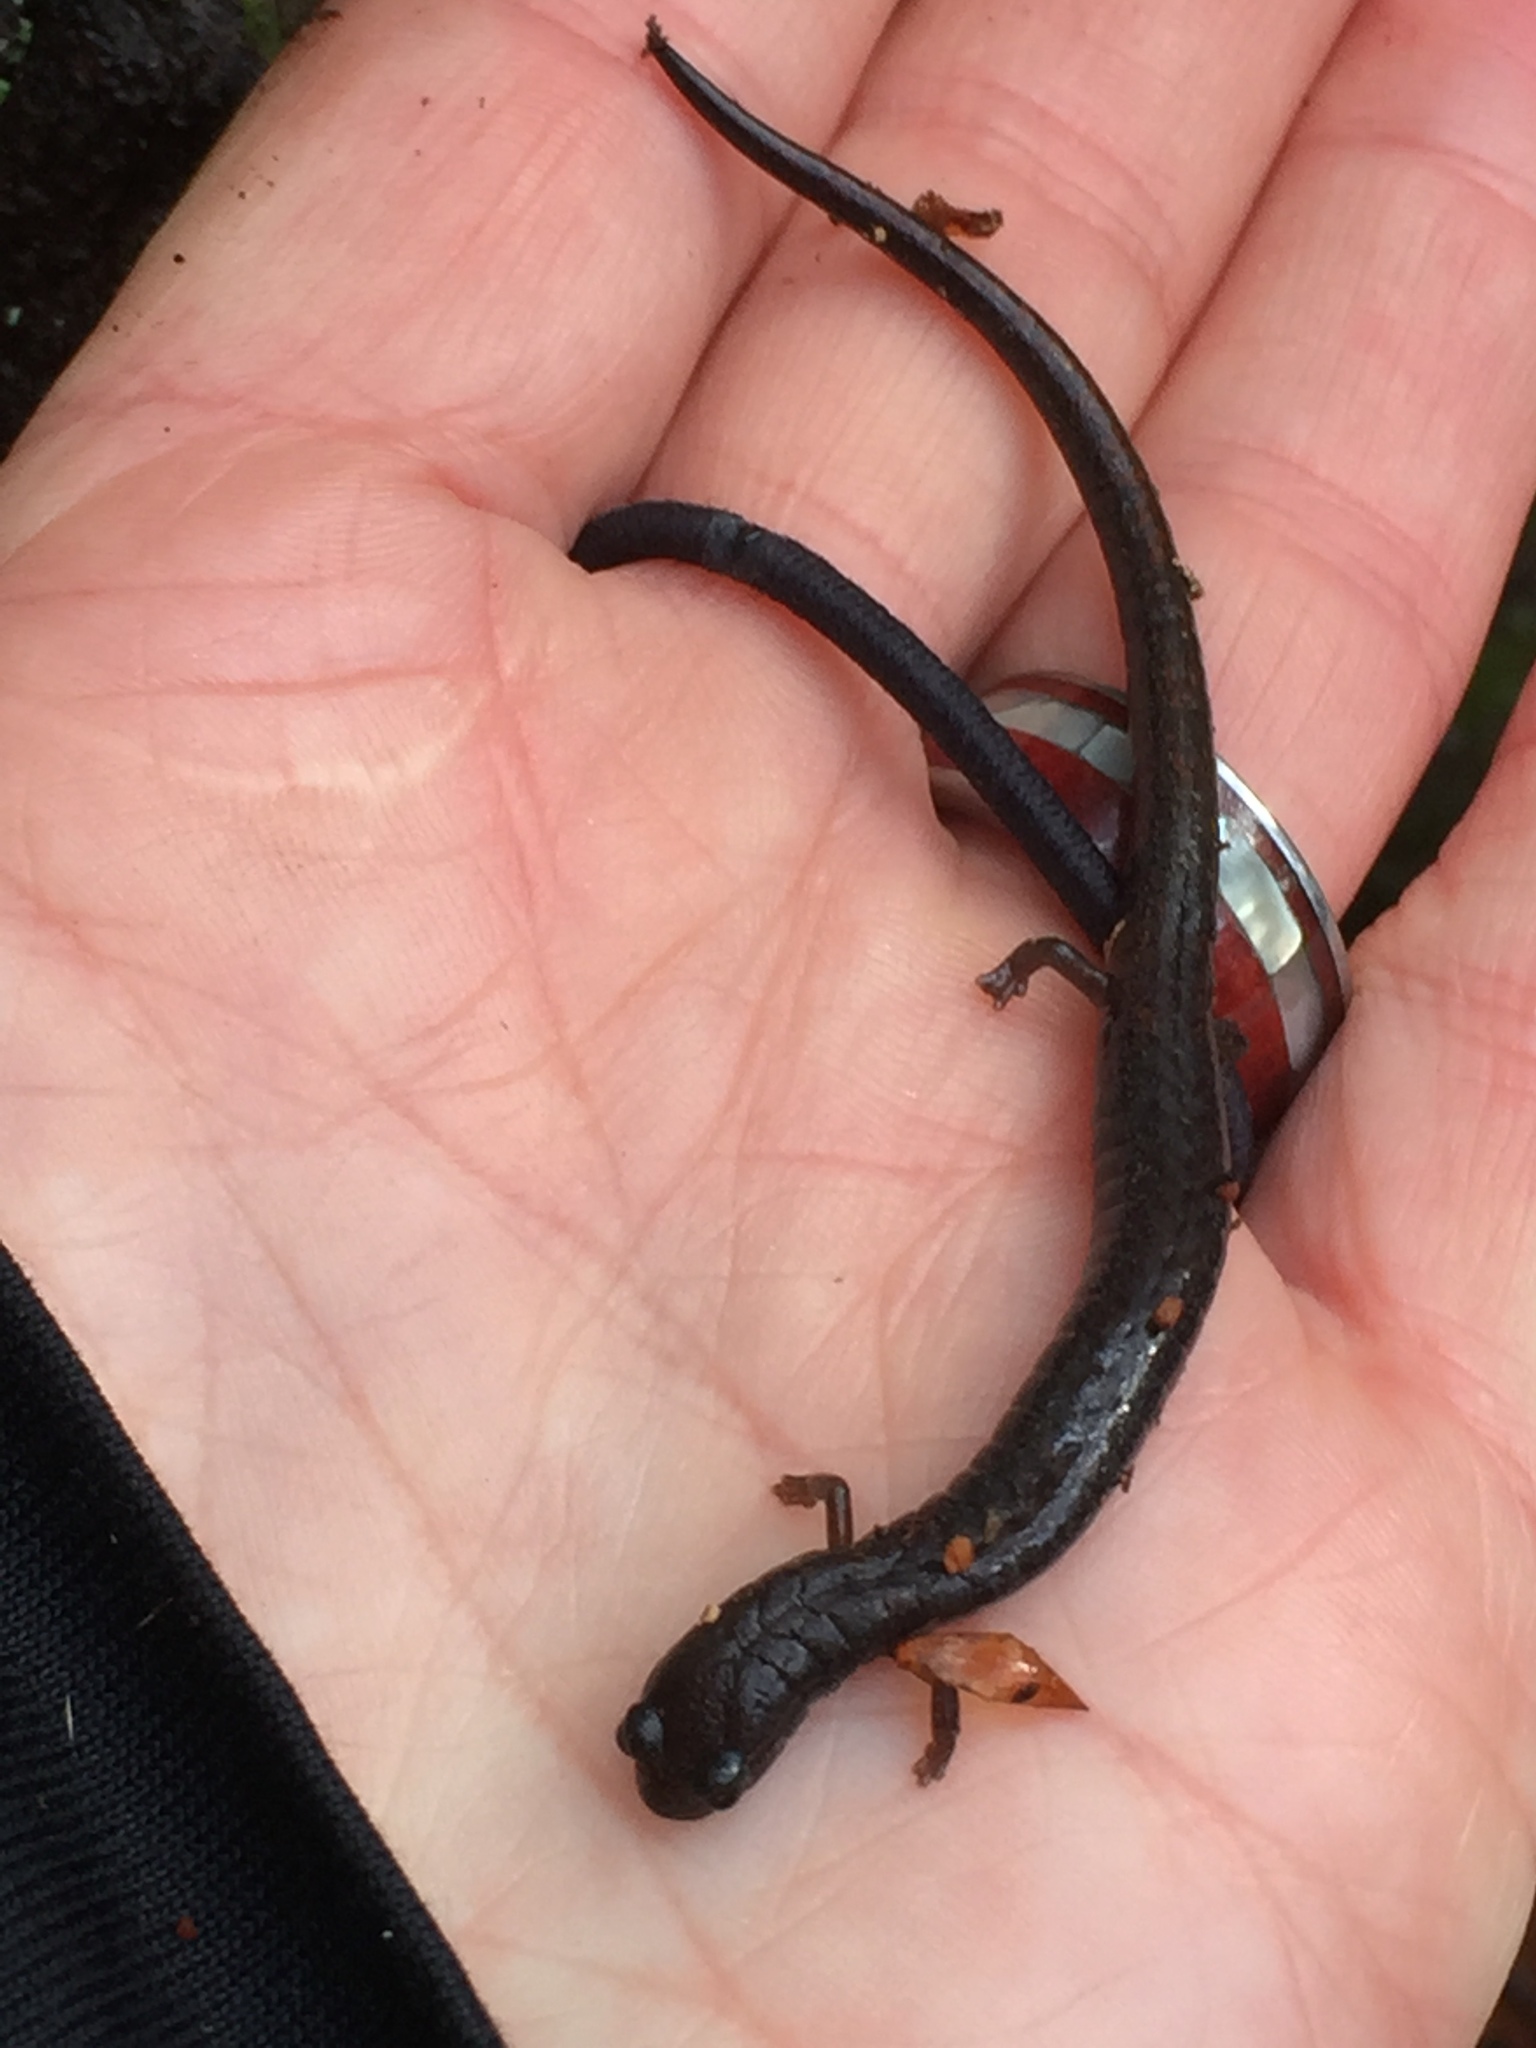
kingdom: Animalia
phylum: Chordata
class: Amphibia
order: Caudata
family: Plethodontidae
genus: Batrachoseps
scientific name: Batrachoseps attenuatus
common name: California slender salamander
